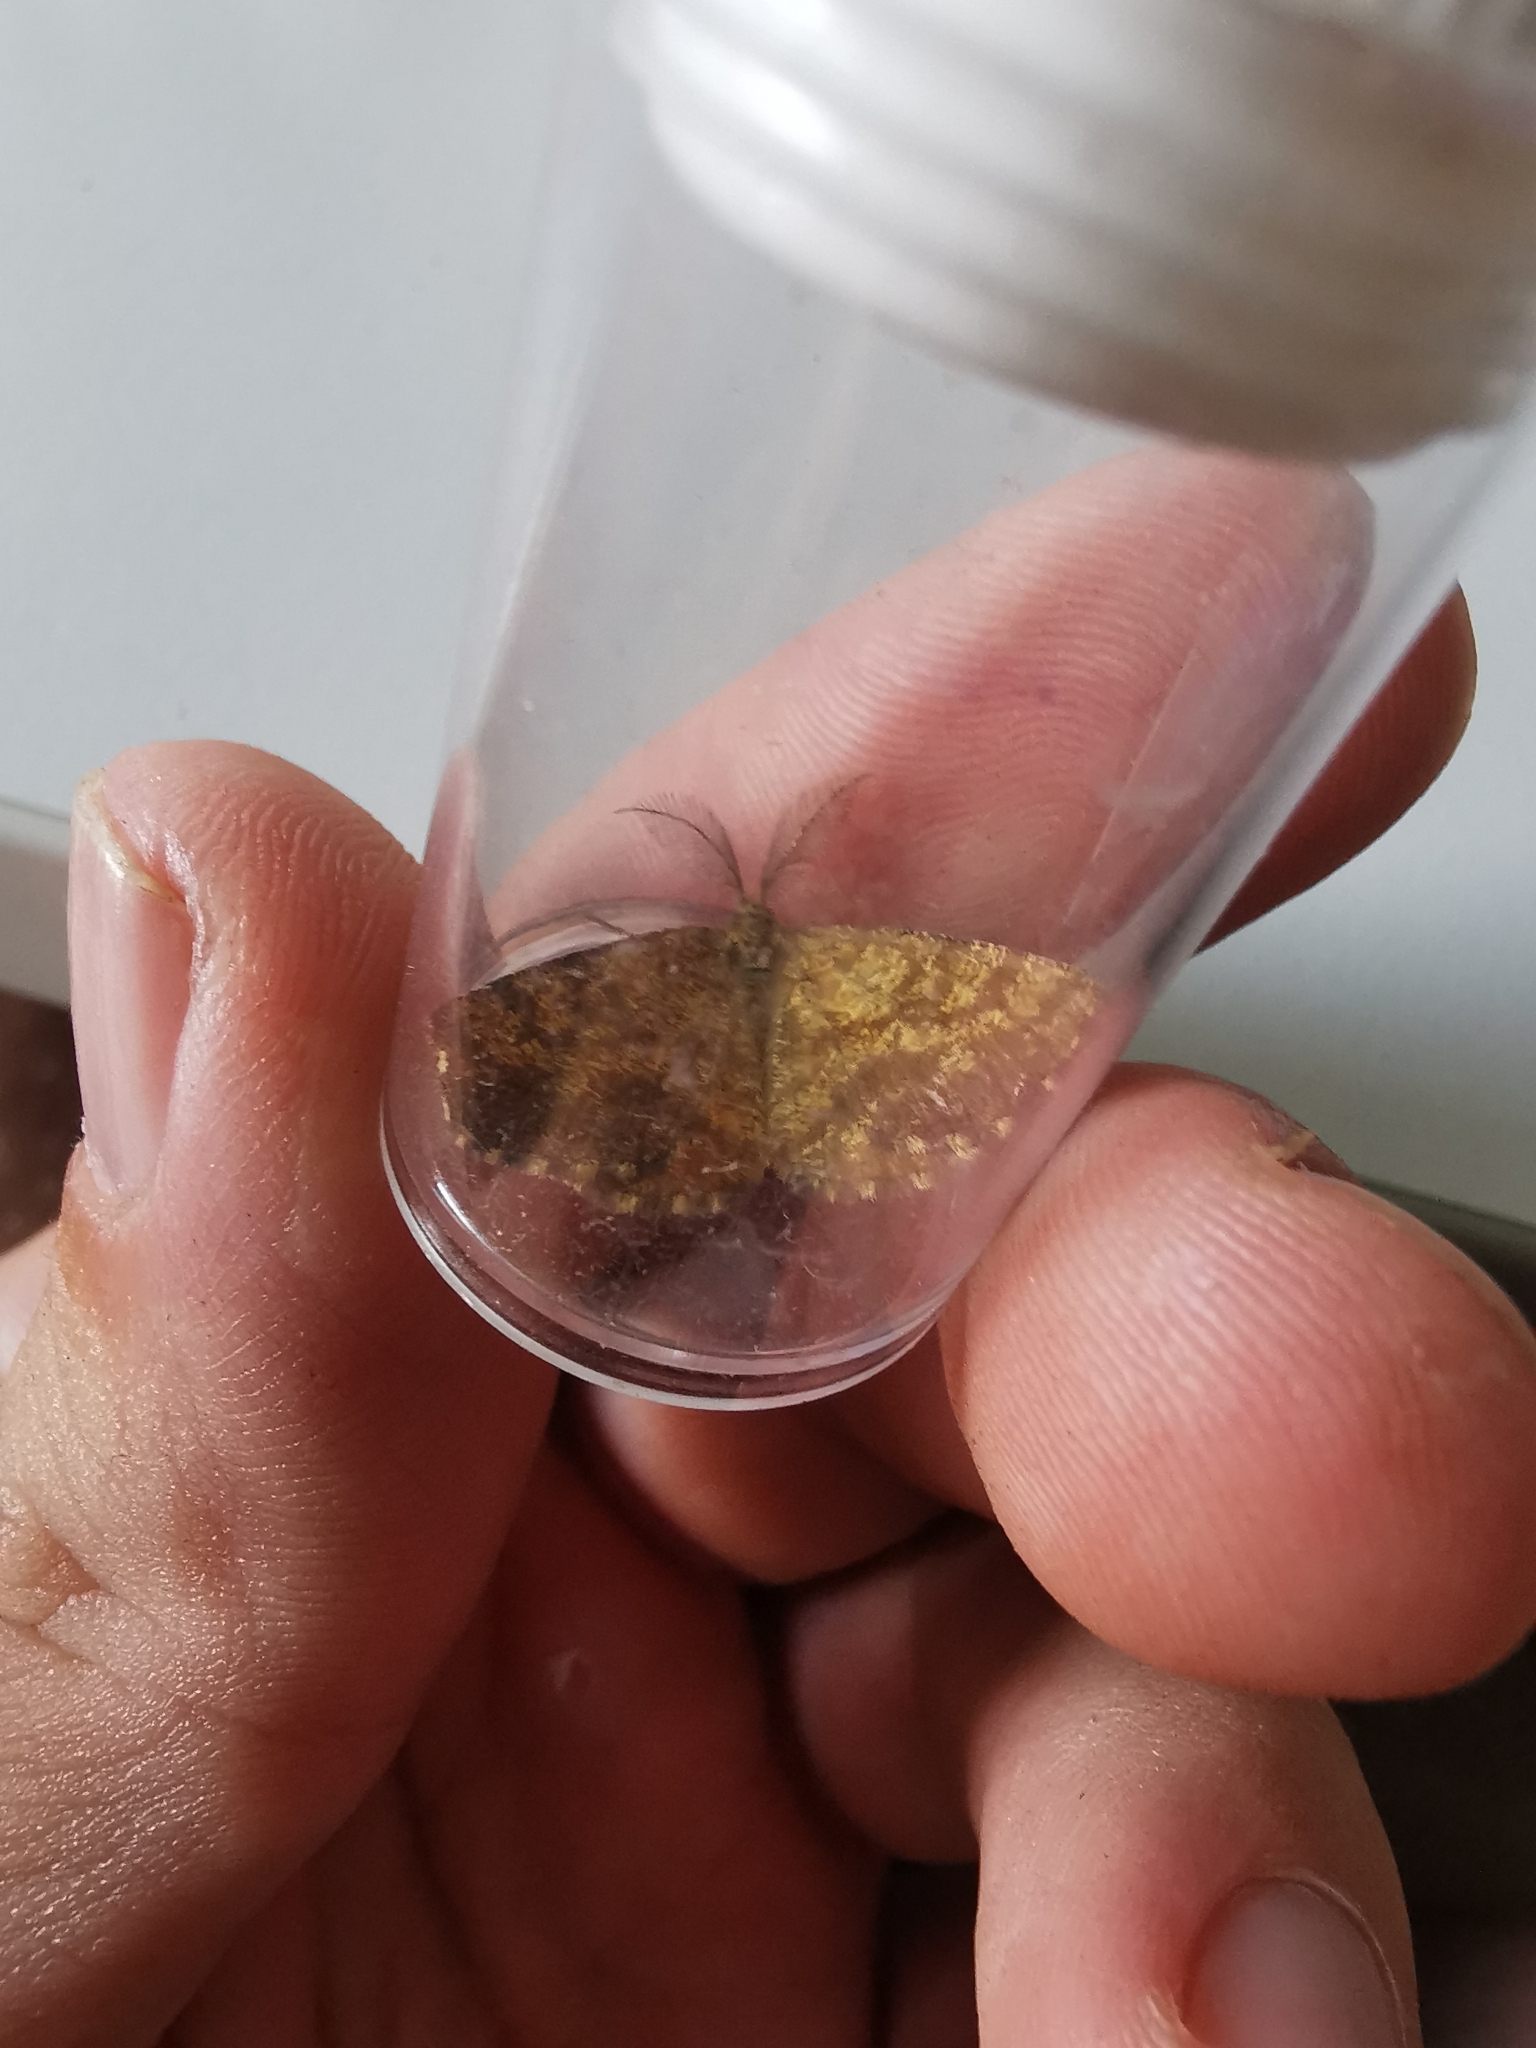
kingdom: Animalia
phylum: Arthropoda
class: Insecta
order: Lepidoptera
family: Geometridae
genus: Ematurga
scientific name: Ematurga atomaria
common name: Common heath
